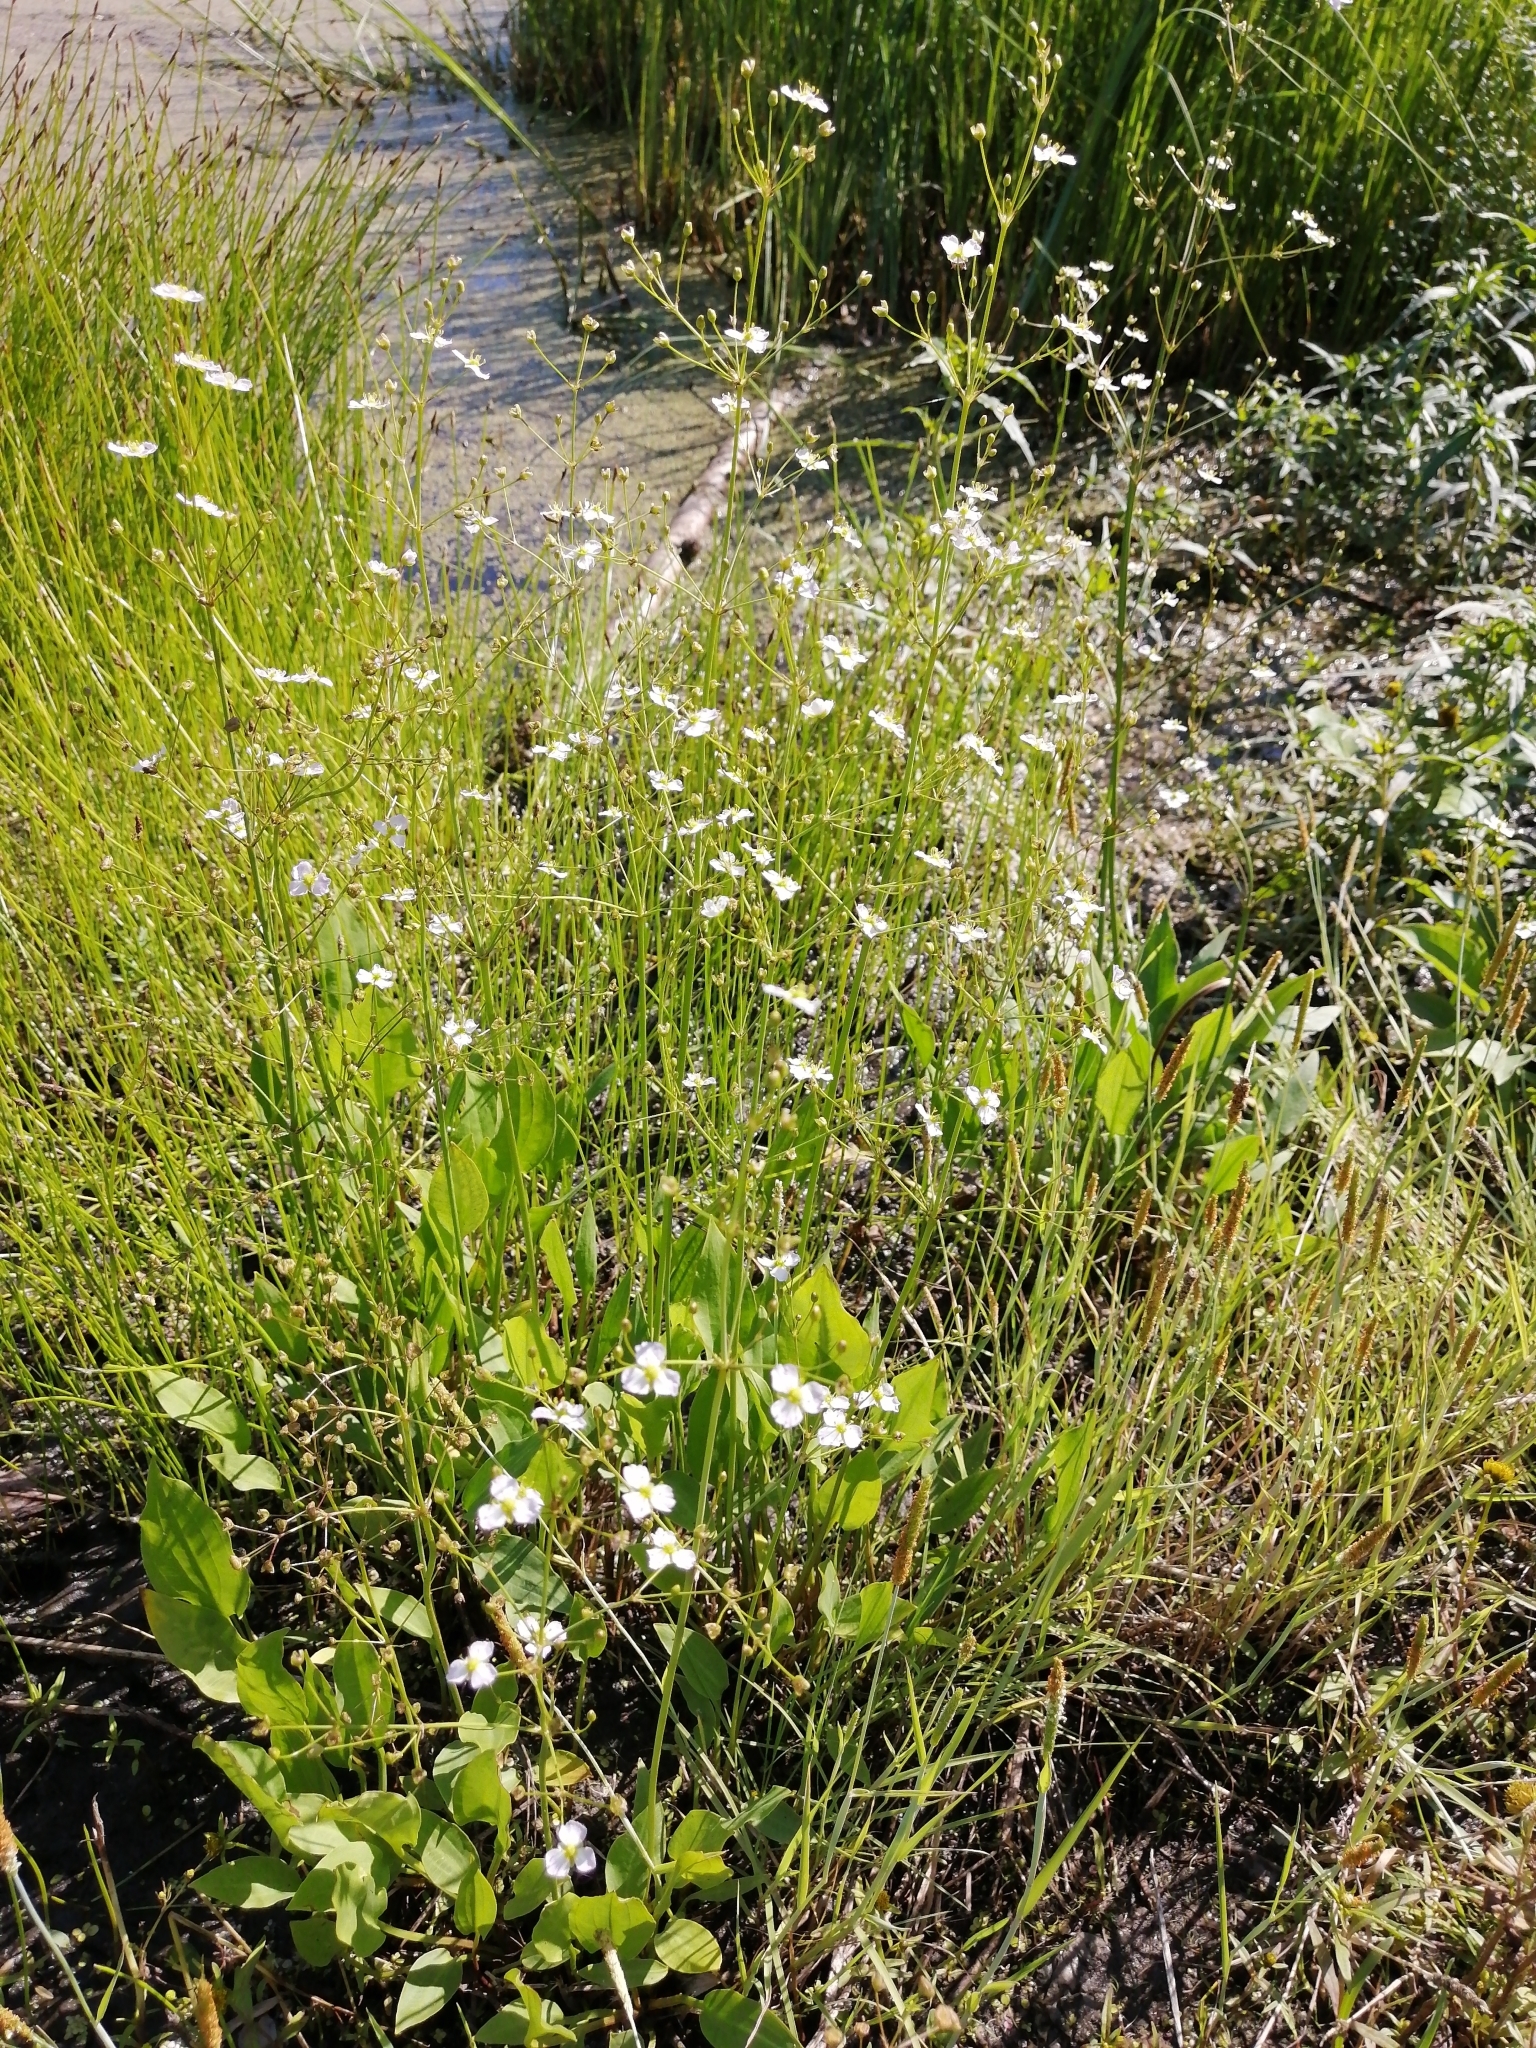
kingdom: Plantae
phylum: Tracheophyta
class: Liliopsida
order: Alismatales
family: Alismataceae
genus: Alisma
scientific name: Alisma plantago-aquatica
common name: Water-plantain
